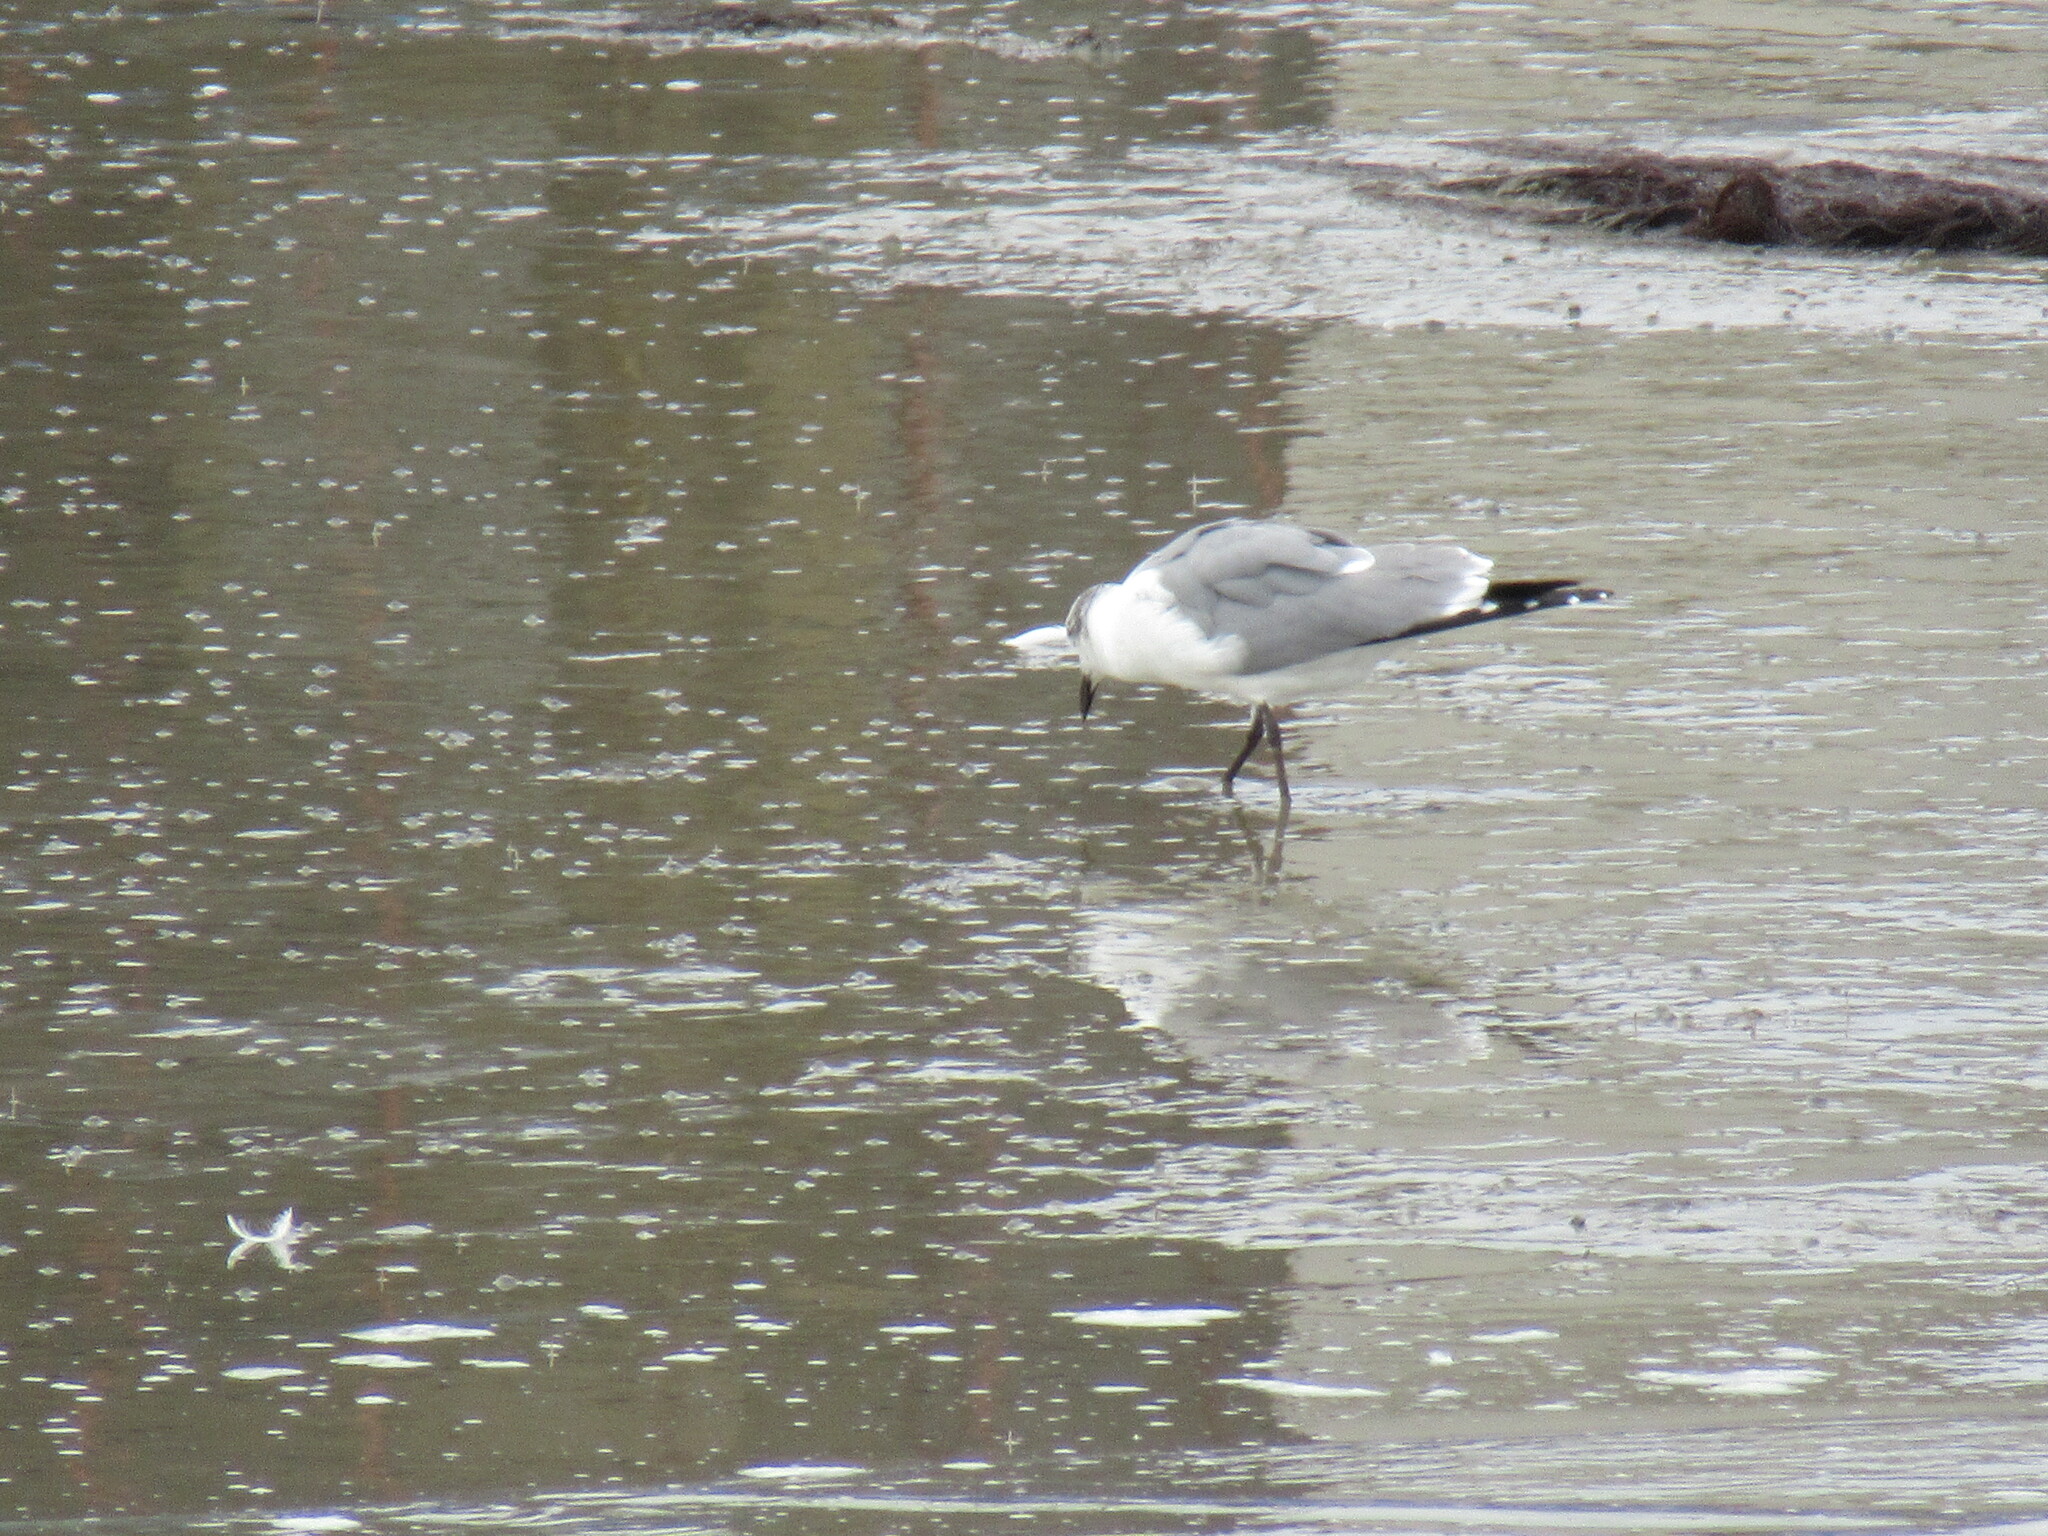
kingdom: Animalia
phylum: Chordata
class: Aves
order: Charadriiformes
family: Laridae
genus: Leucophaeus
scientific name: Leucophaeus atricilla
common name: Laughing gull
